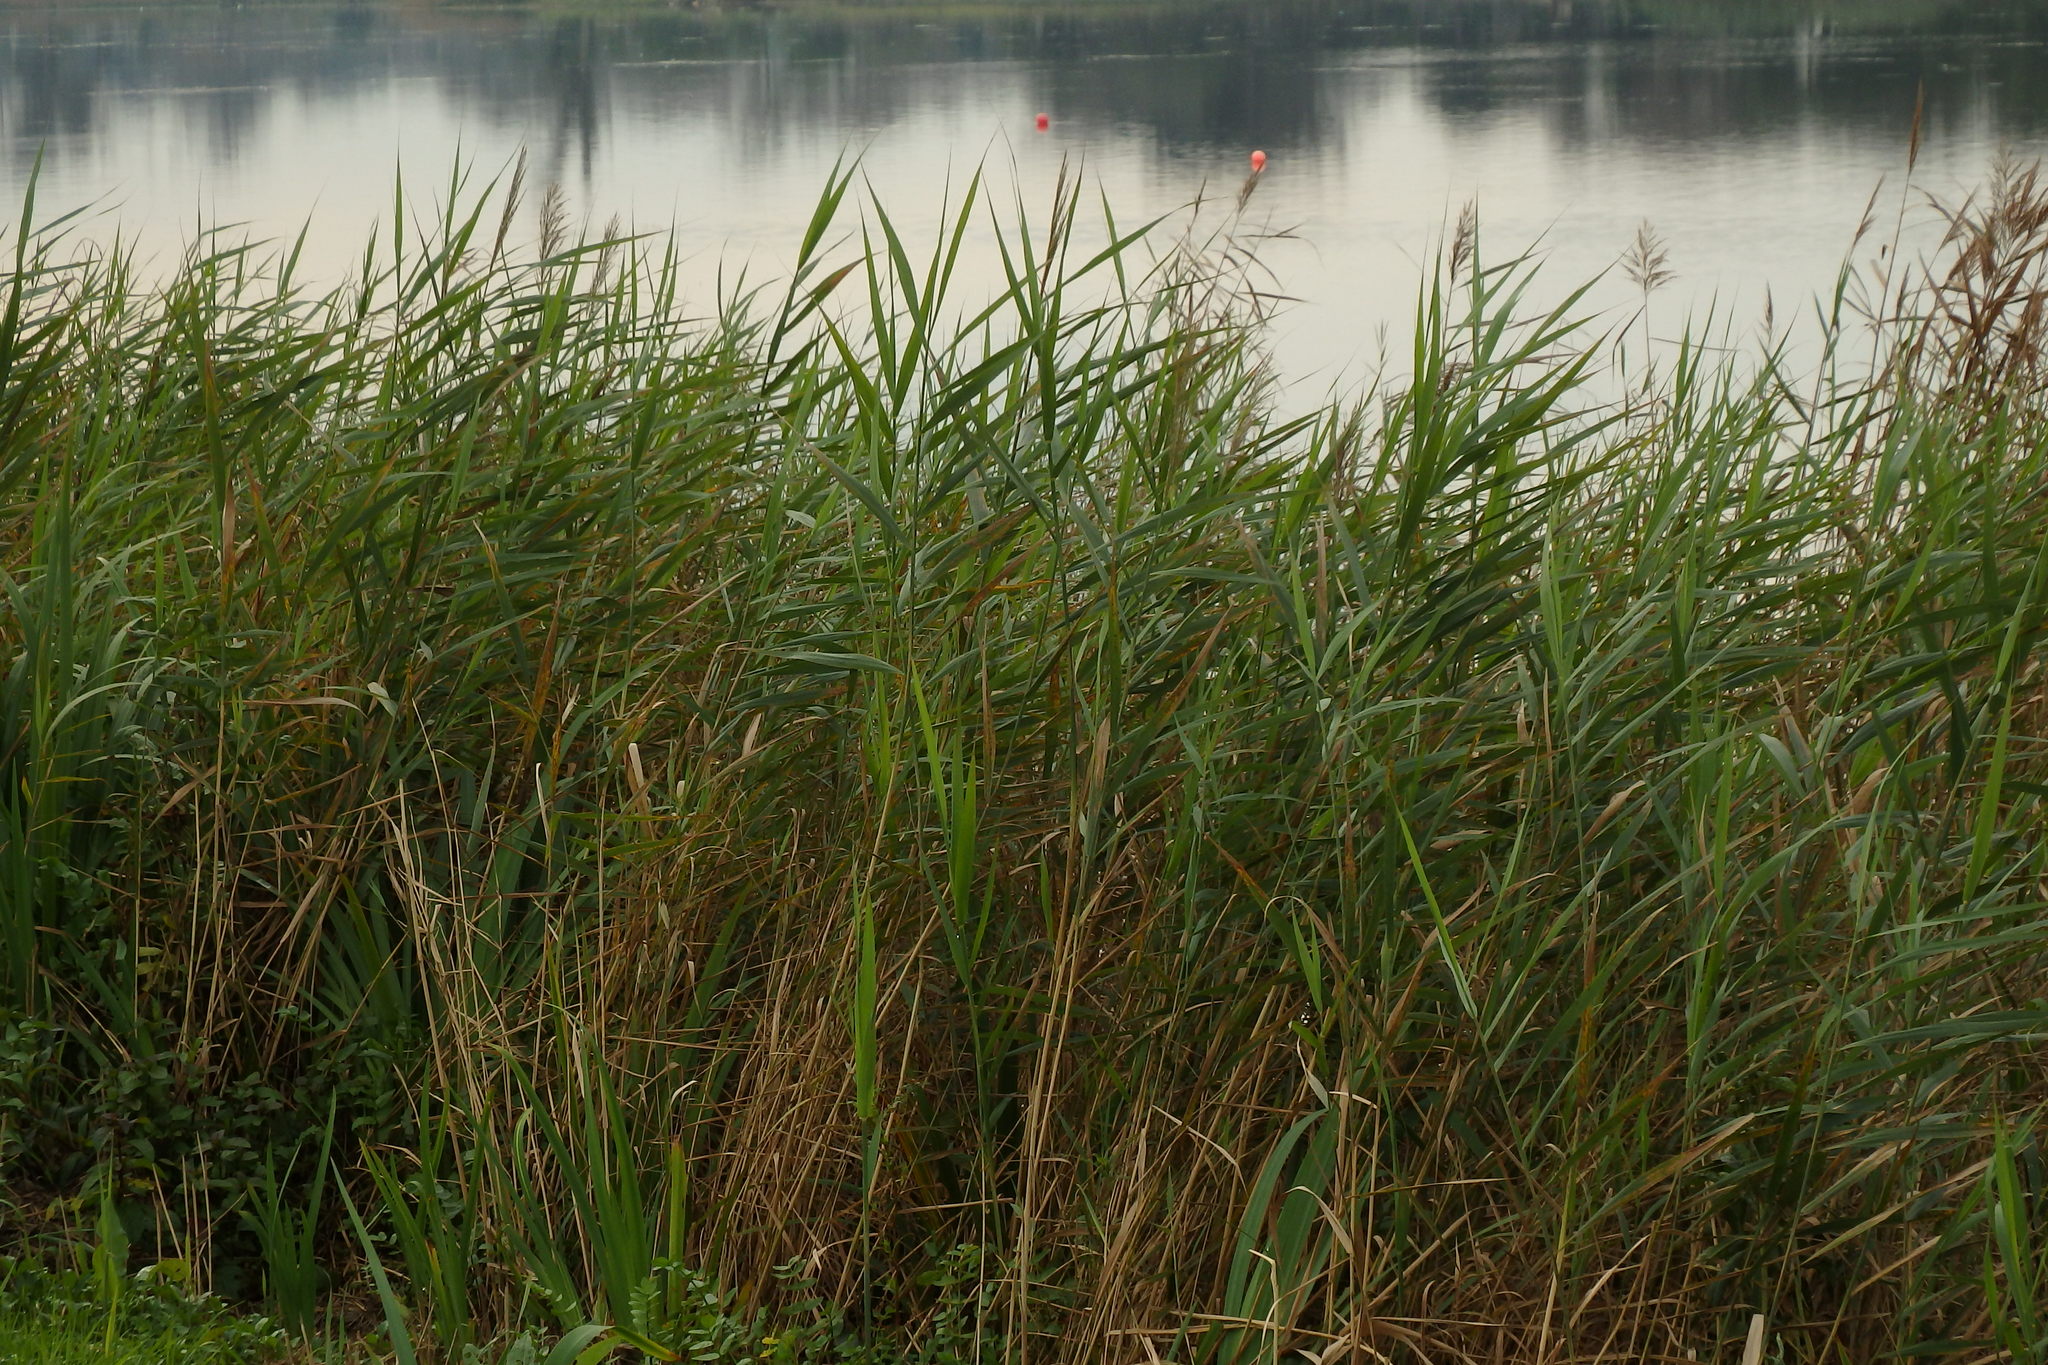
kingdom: Plantae
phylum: Tracheophyta
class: Liliopsida
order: Poales
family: Poaceae
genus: Phragmites
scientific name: Phragmites australis
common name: Common reed
